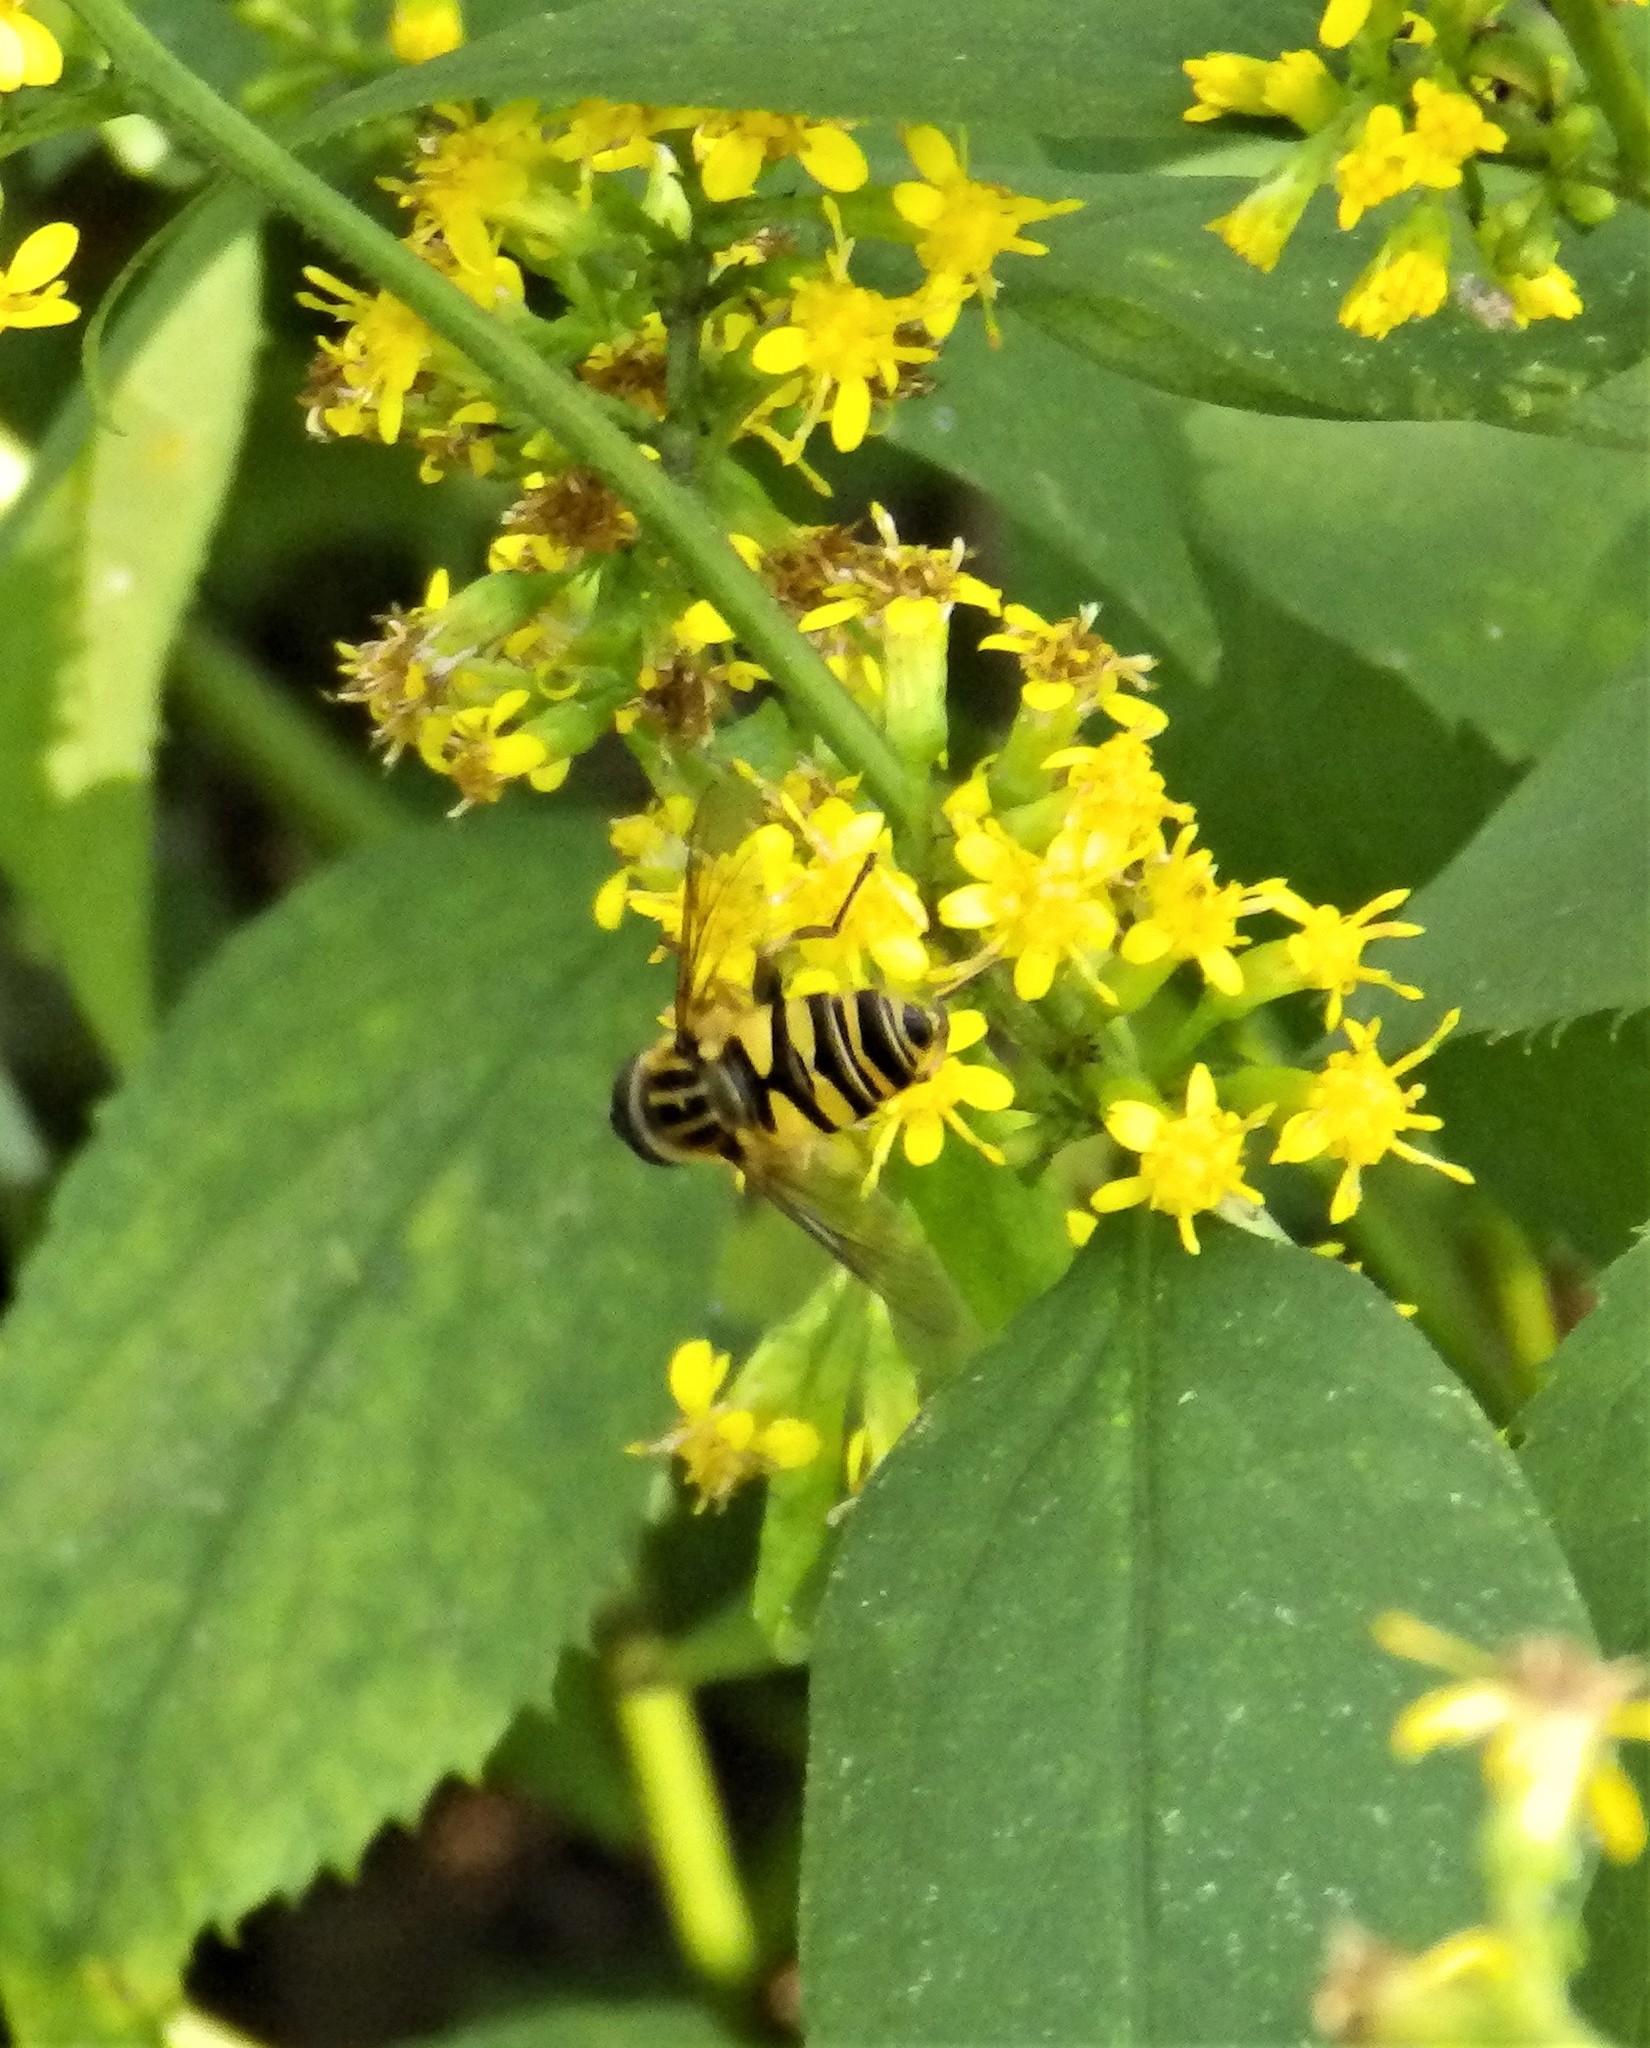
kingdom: Animalia
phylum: Arthropoda
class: Insecta
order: Diptera
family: Syrphidae
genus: Helophilus
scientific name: Helophilus fasciatus
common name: Narrow-headed marsh fly
